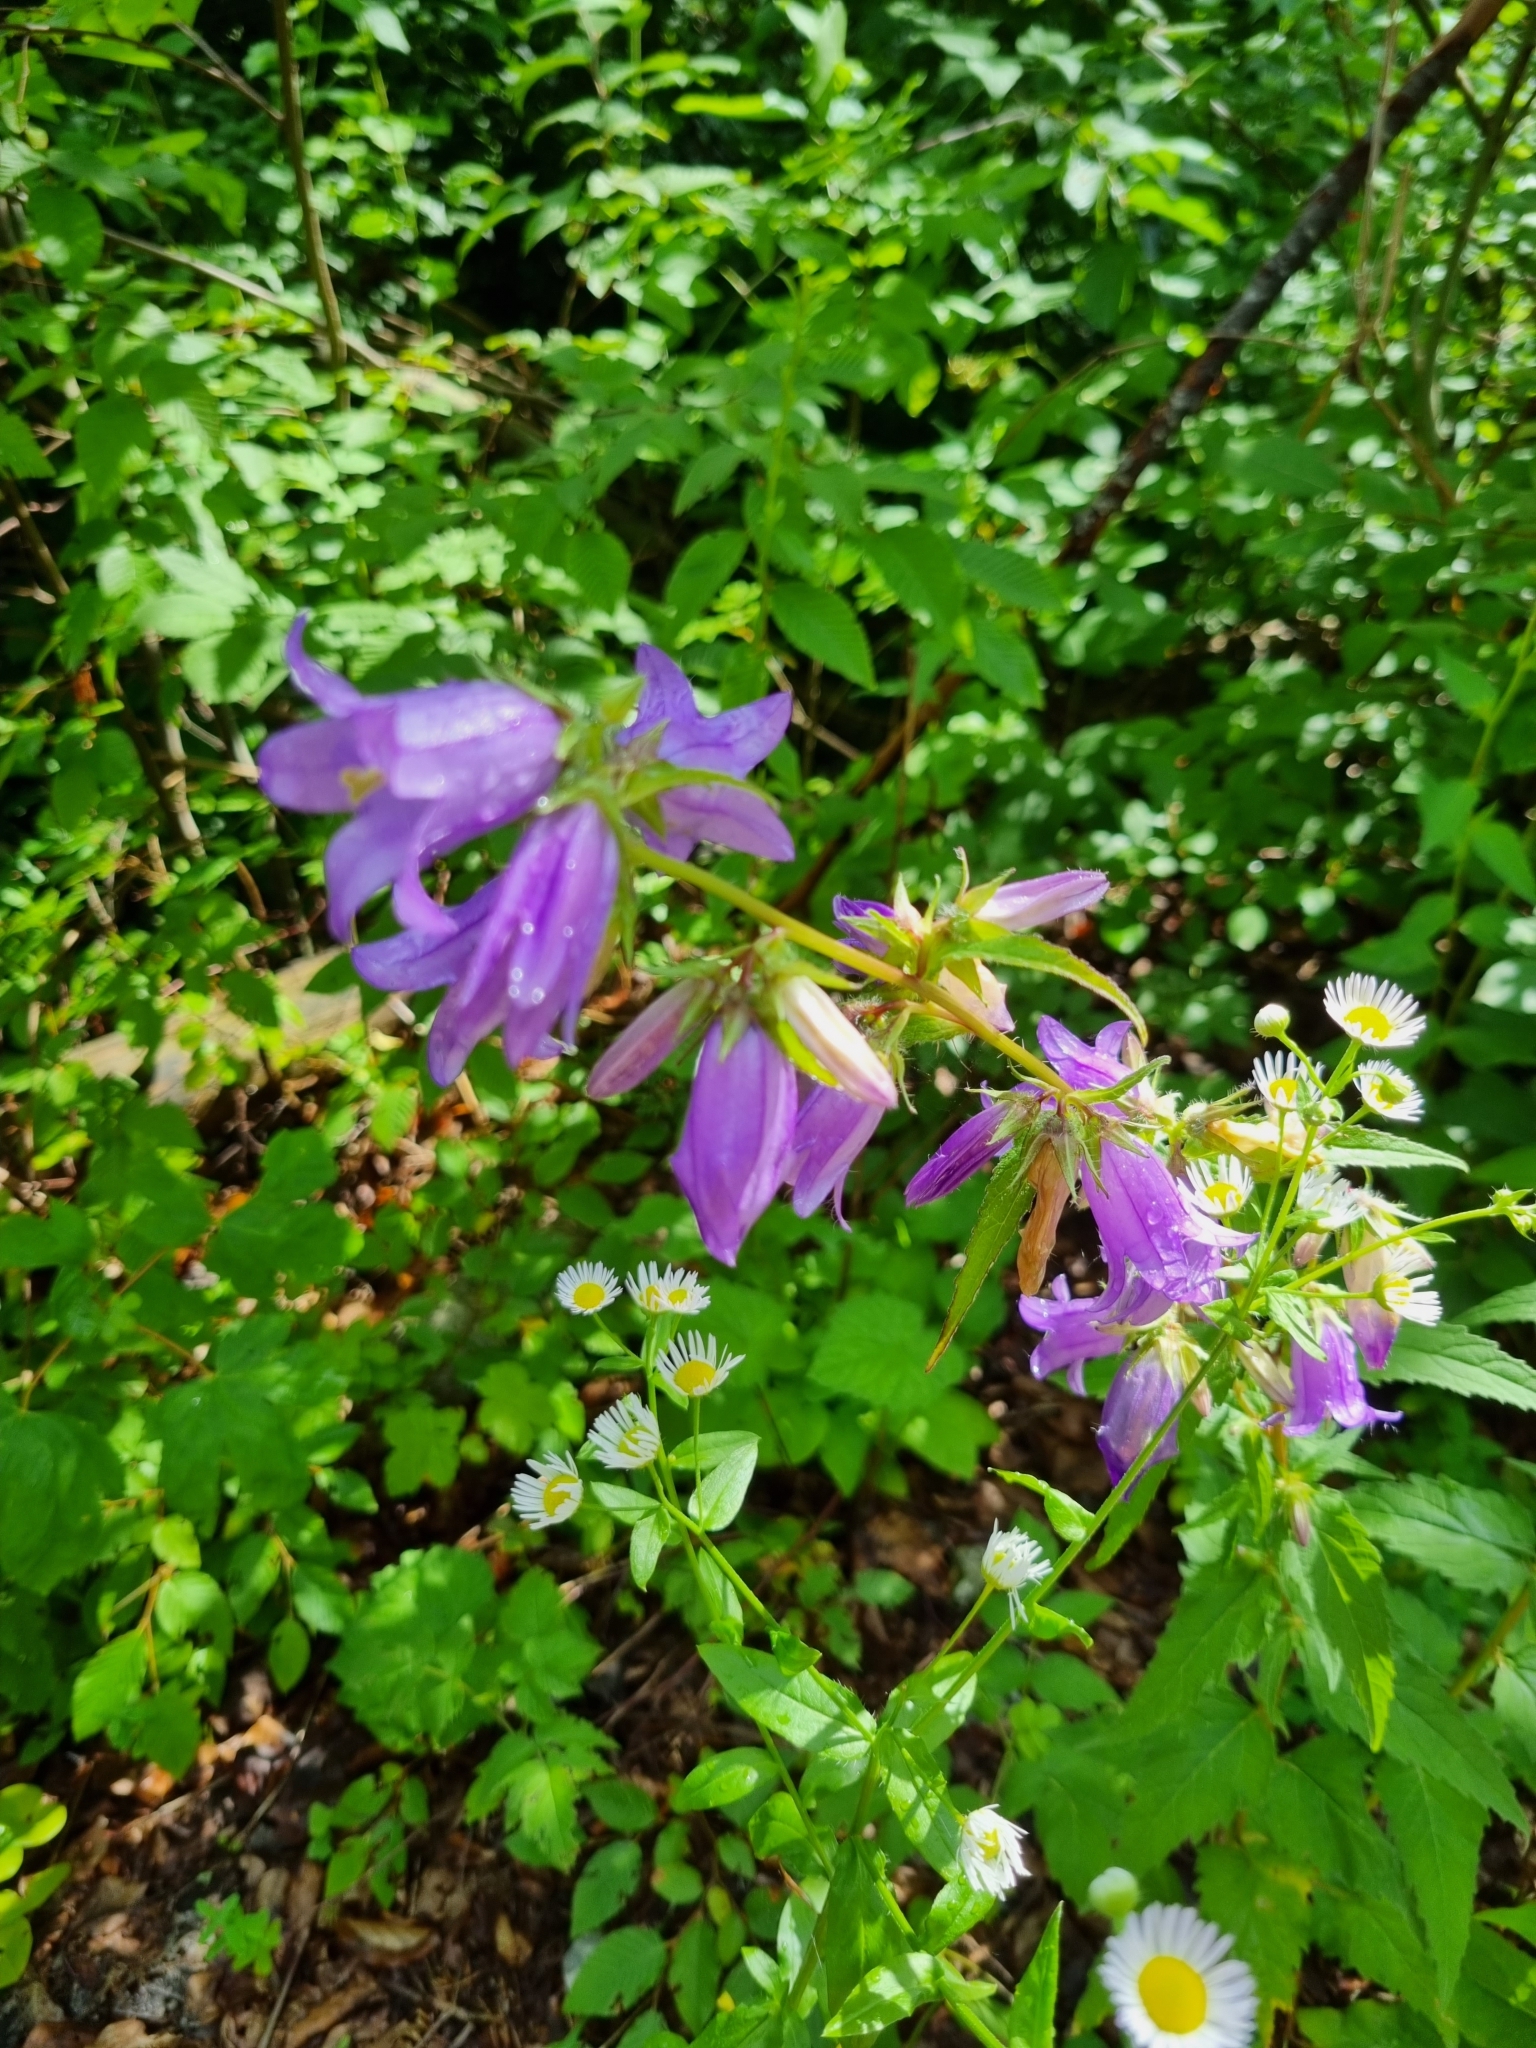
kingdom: Plantae
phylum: Tracheophyta
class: Magnoliopsida
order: Asterales
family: Campanulaceae
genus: Campanula
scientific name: Campanula trachelium
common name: Nettle-leaved bellflower
